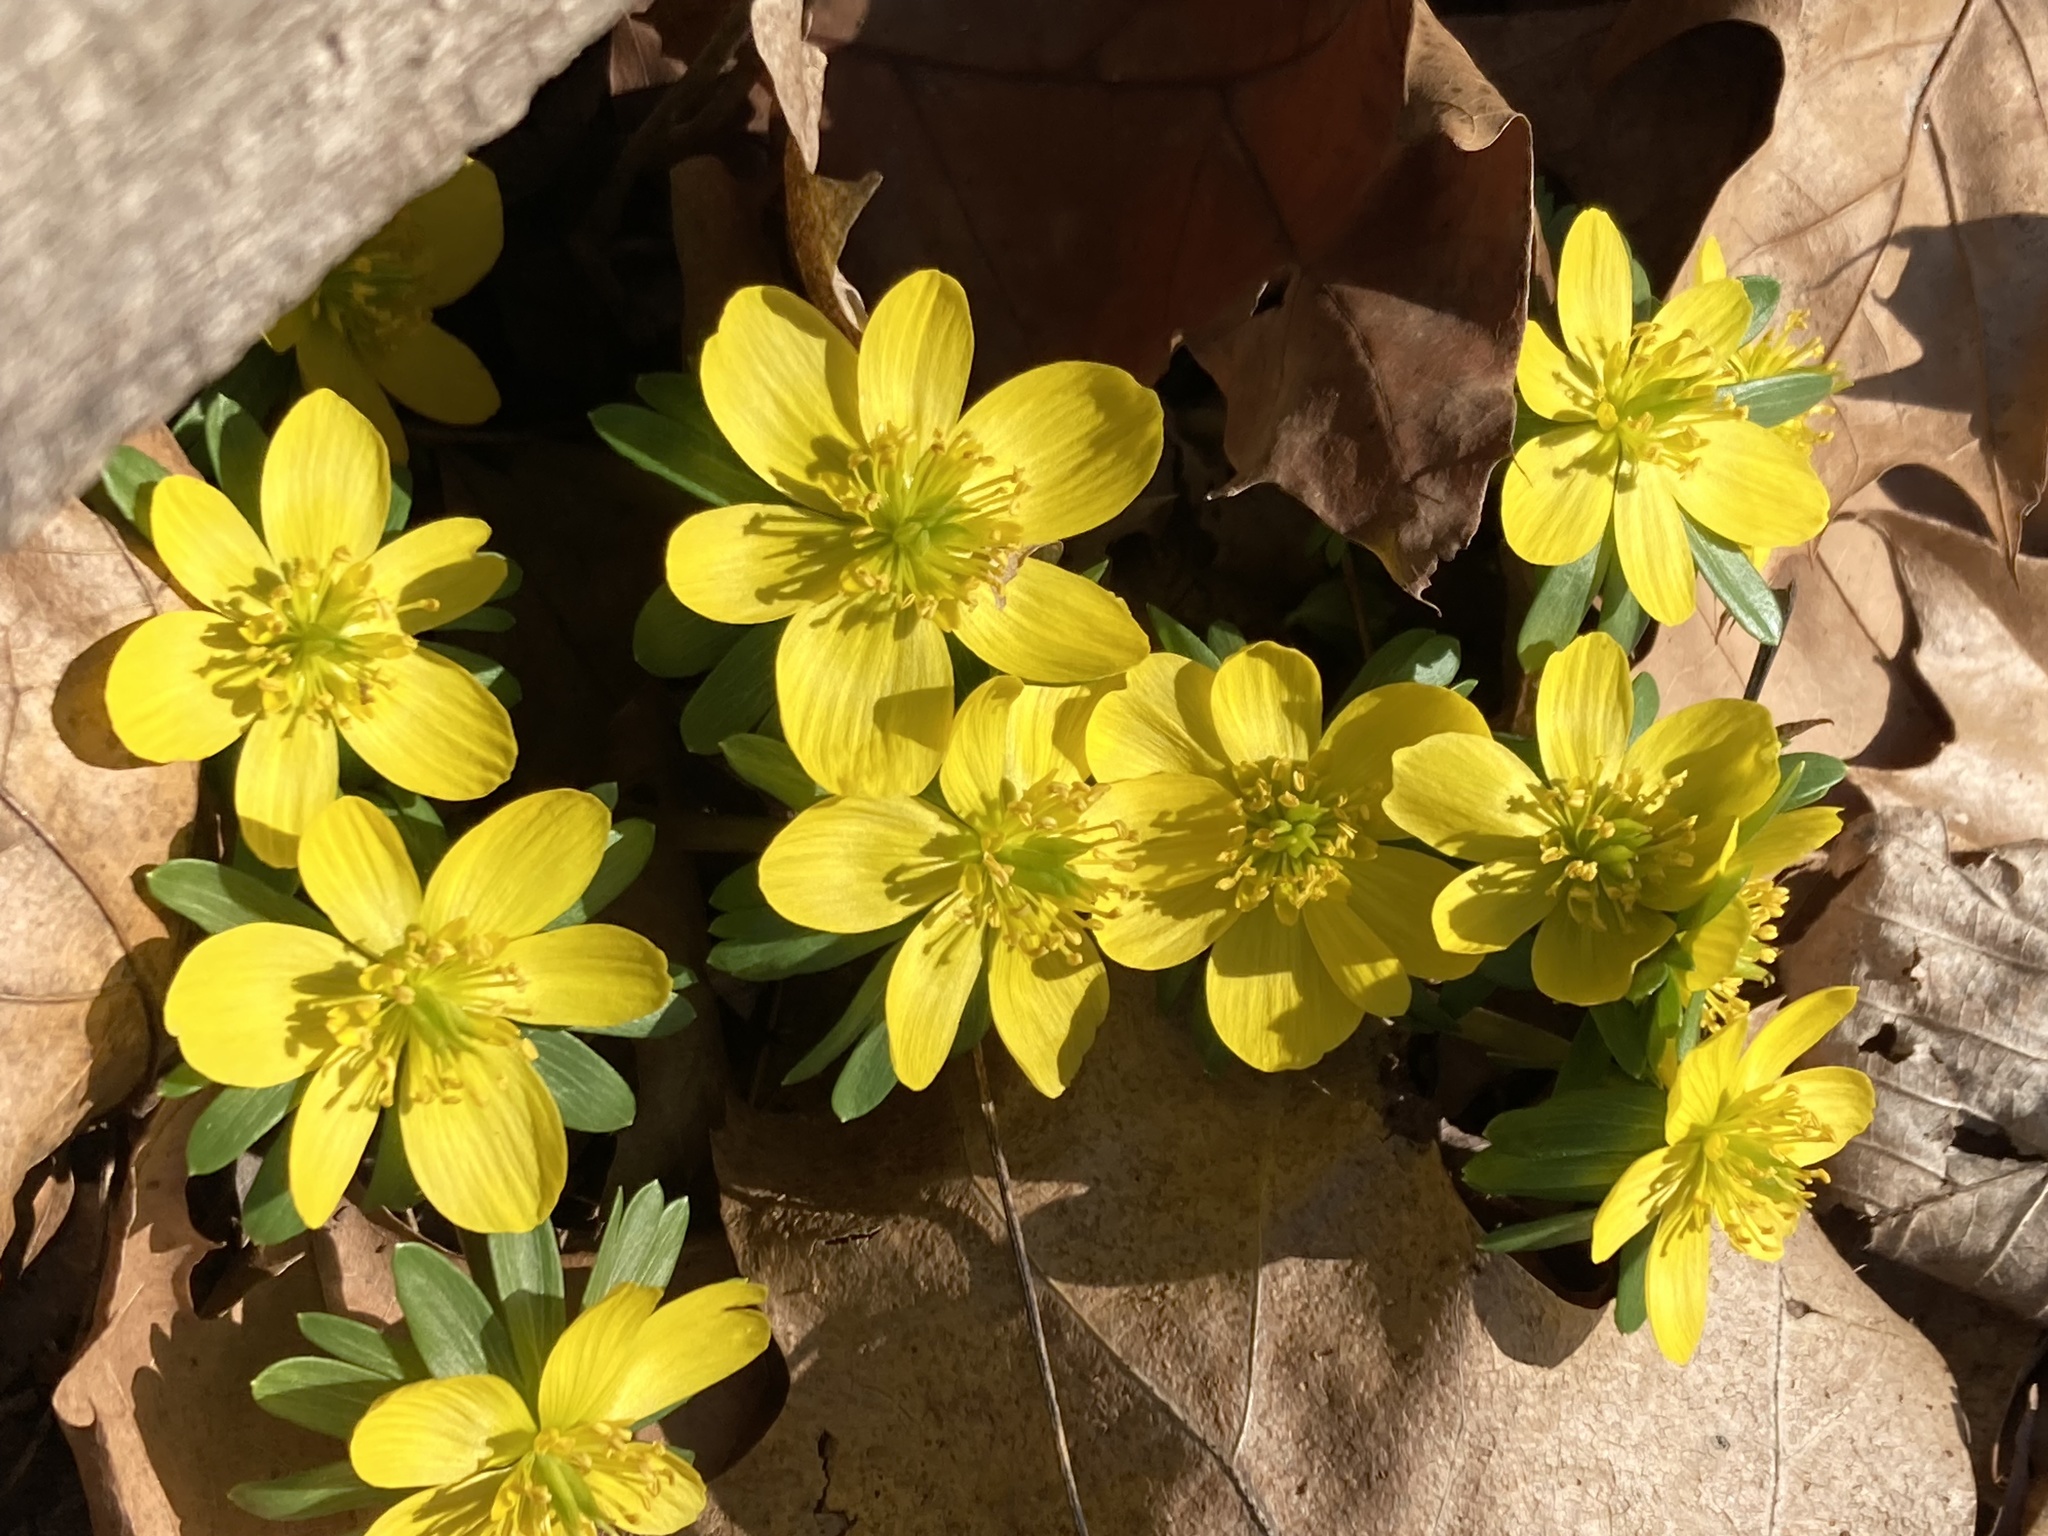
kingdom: Plantae
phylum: Tracheophyta
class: Magnoliopsida
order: Ranunculales
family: Ranunculaceae
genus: Eranthis
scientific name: Eranthis hyemalis
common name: Winter aconite
